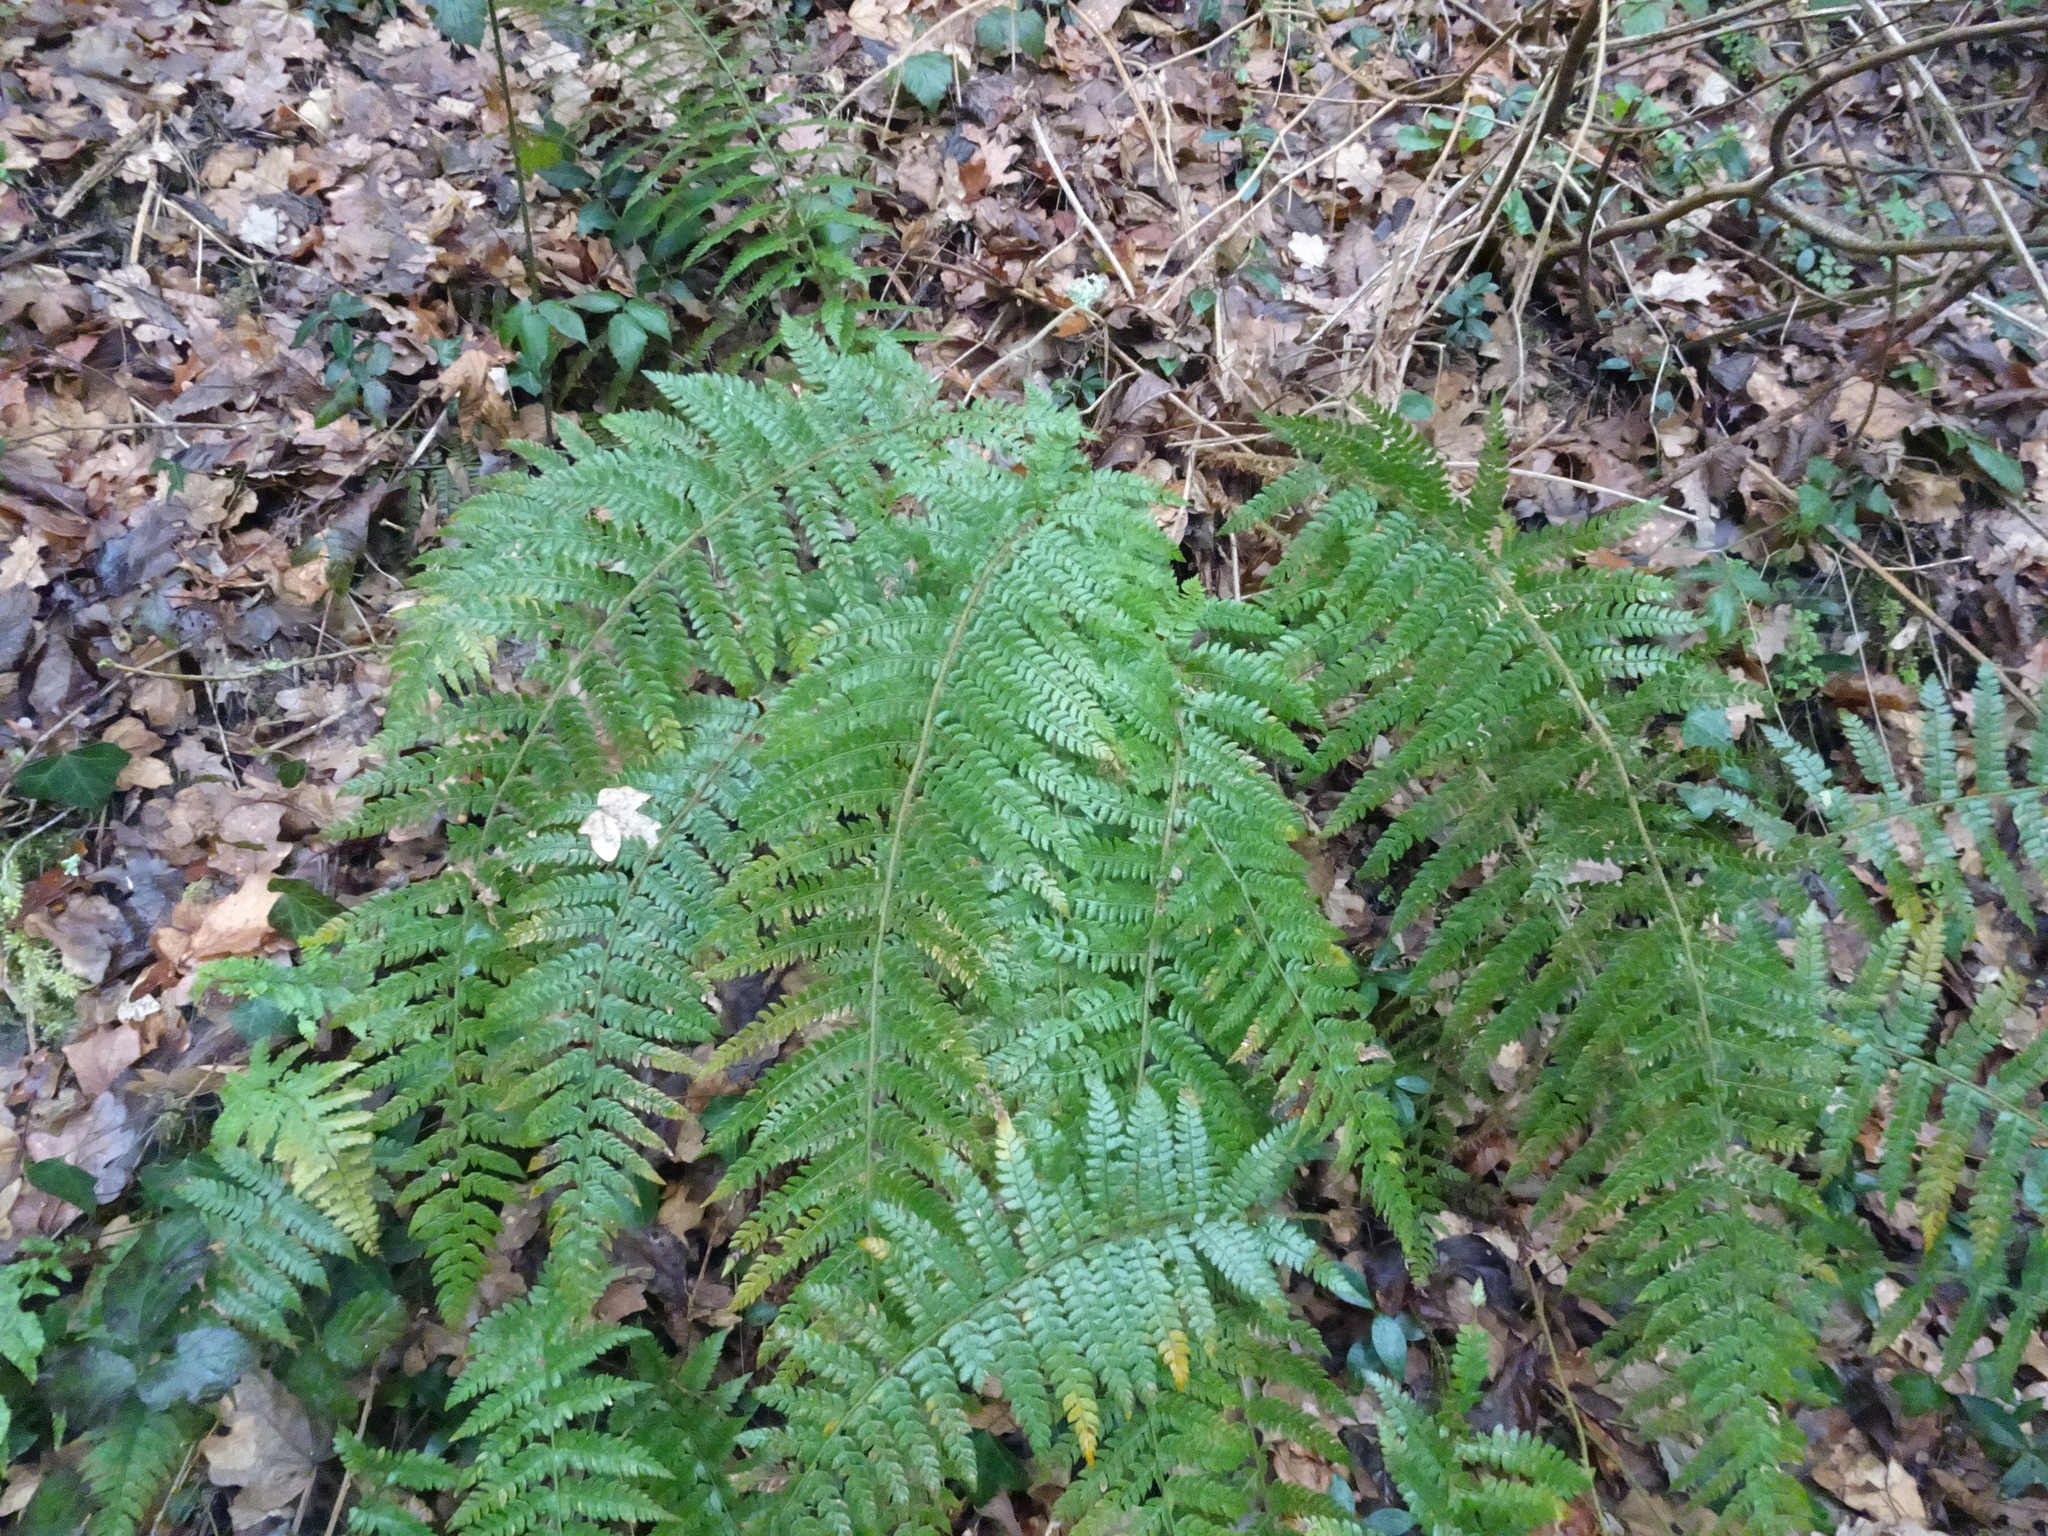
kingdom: Plantae
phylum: Tracheophyta
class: Polypodiopsida
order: Polypodiales
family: Dryopteridaceae
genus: Polystichum
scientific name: Polystichum setiferum
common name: Soft shield-fern
